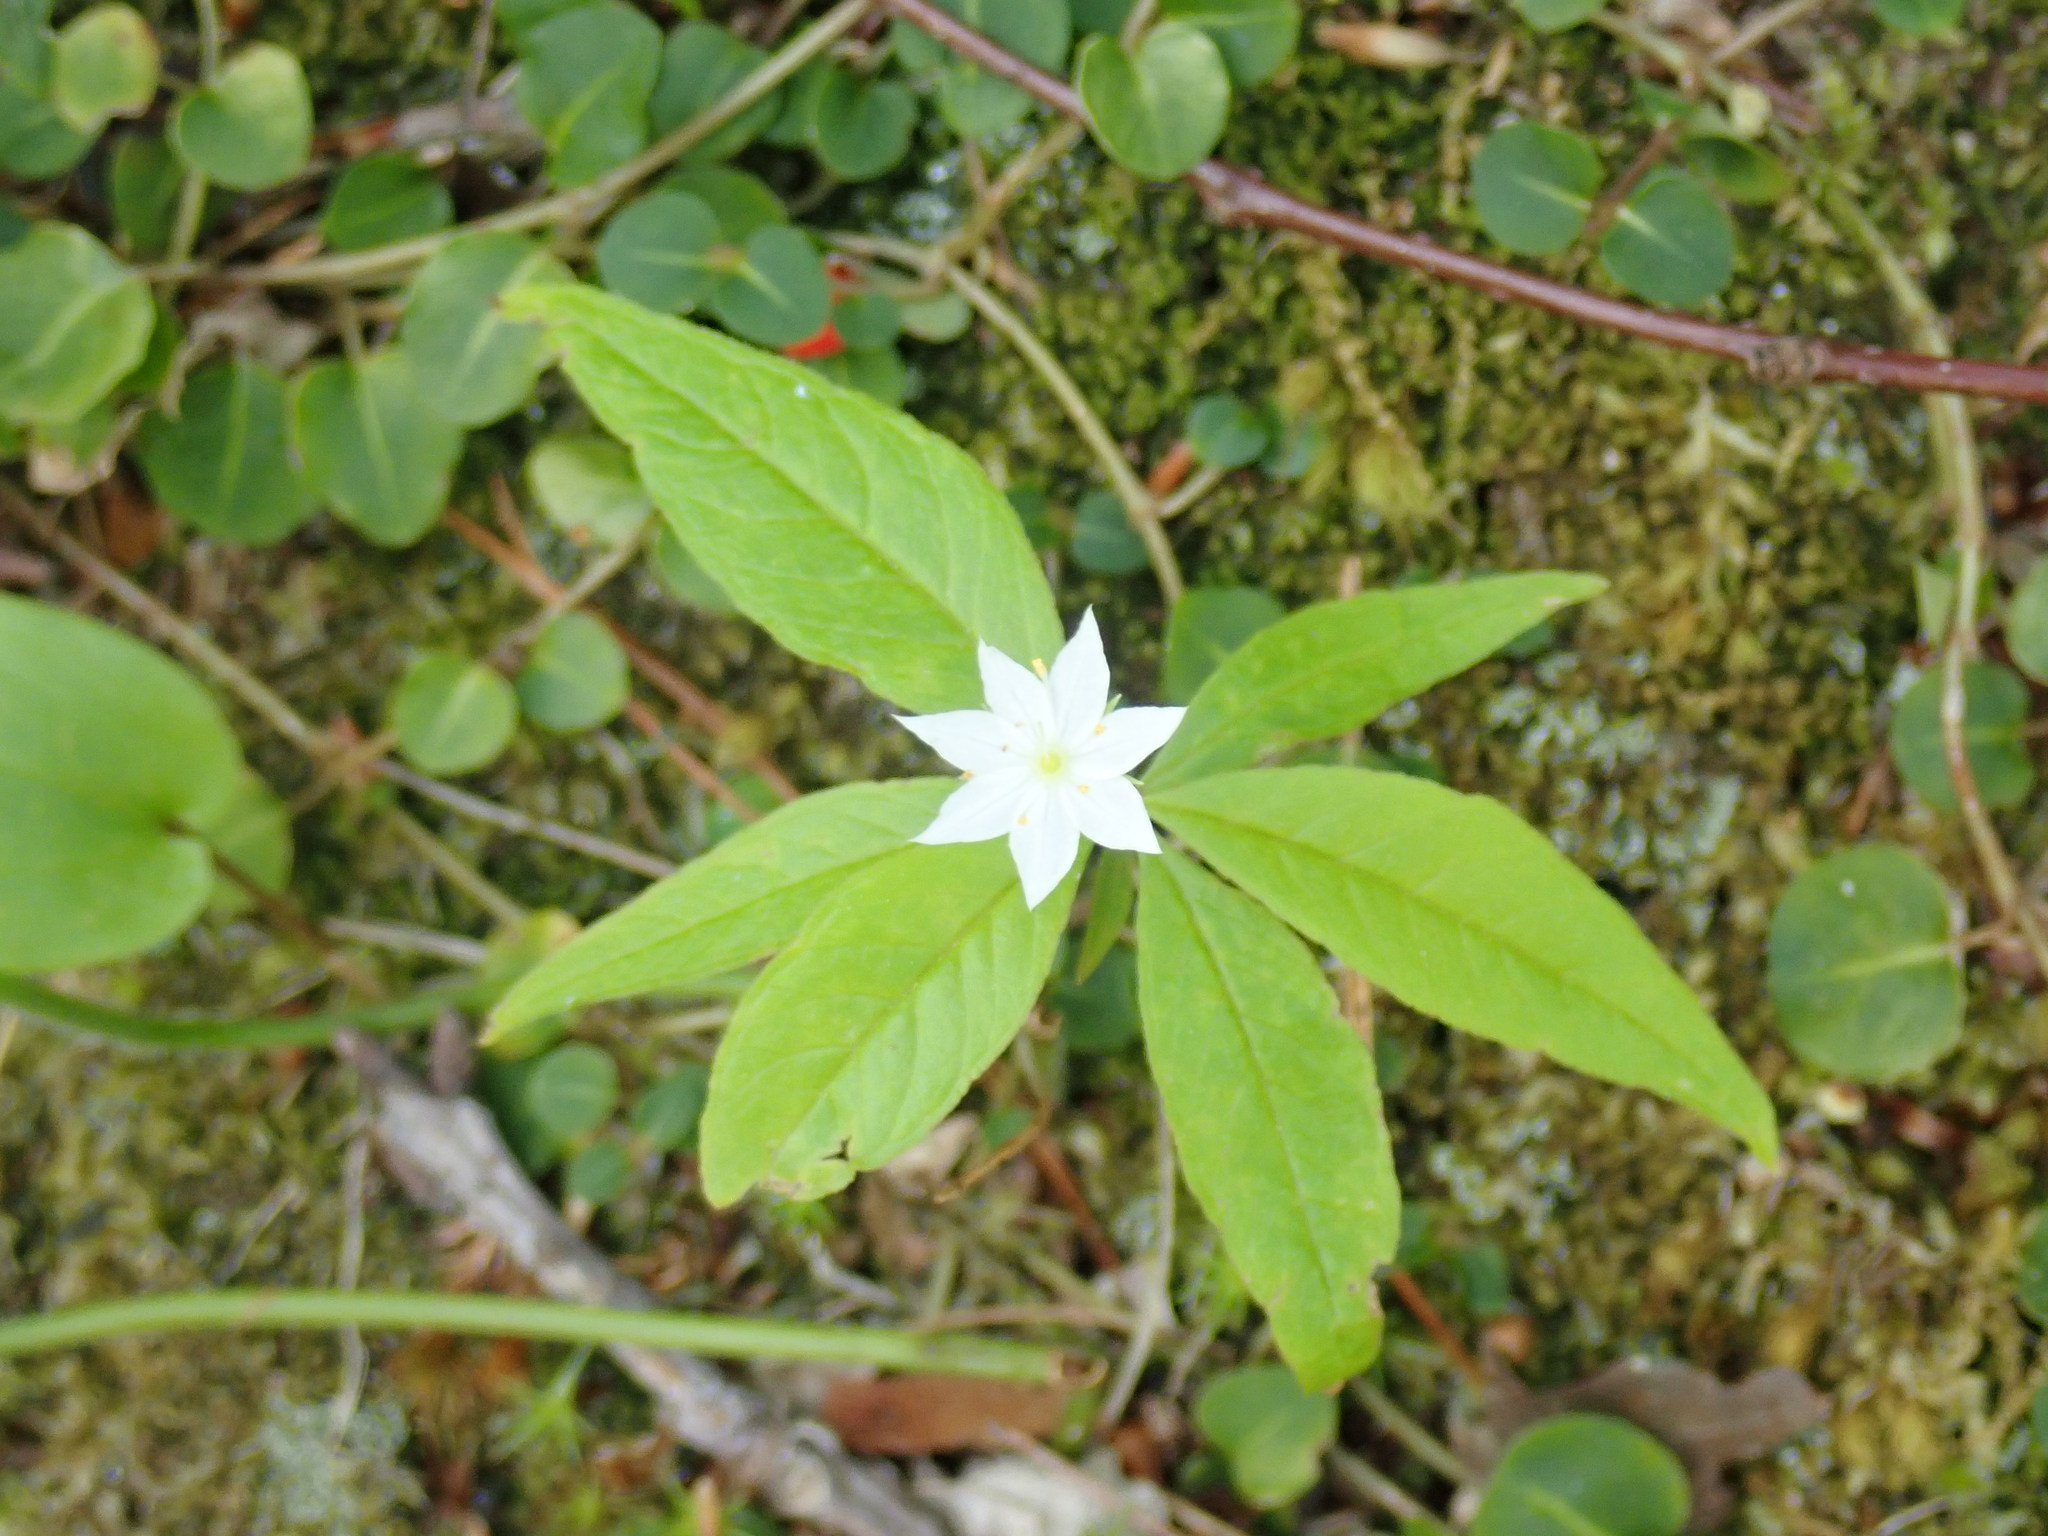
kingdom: Plantae
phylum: Tracheophyta
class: Magnoliopsida
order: Ericales
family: Primulaceae
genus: Lysimachia
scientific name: Lysimachia borealis
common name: American starflower
